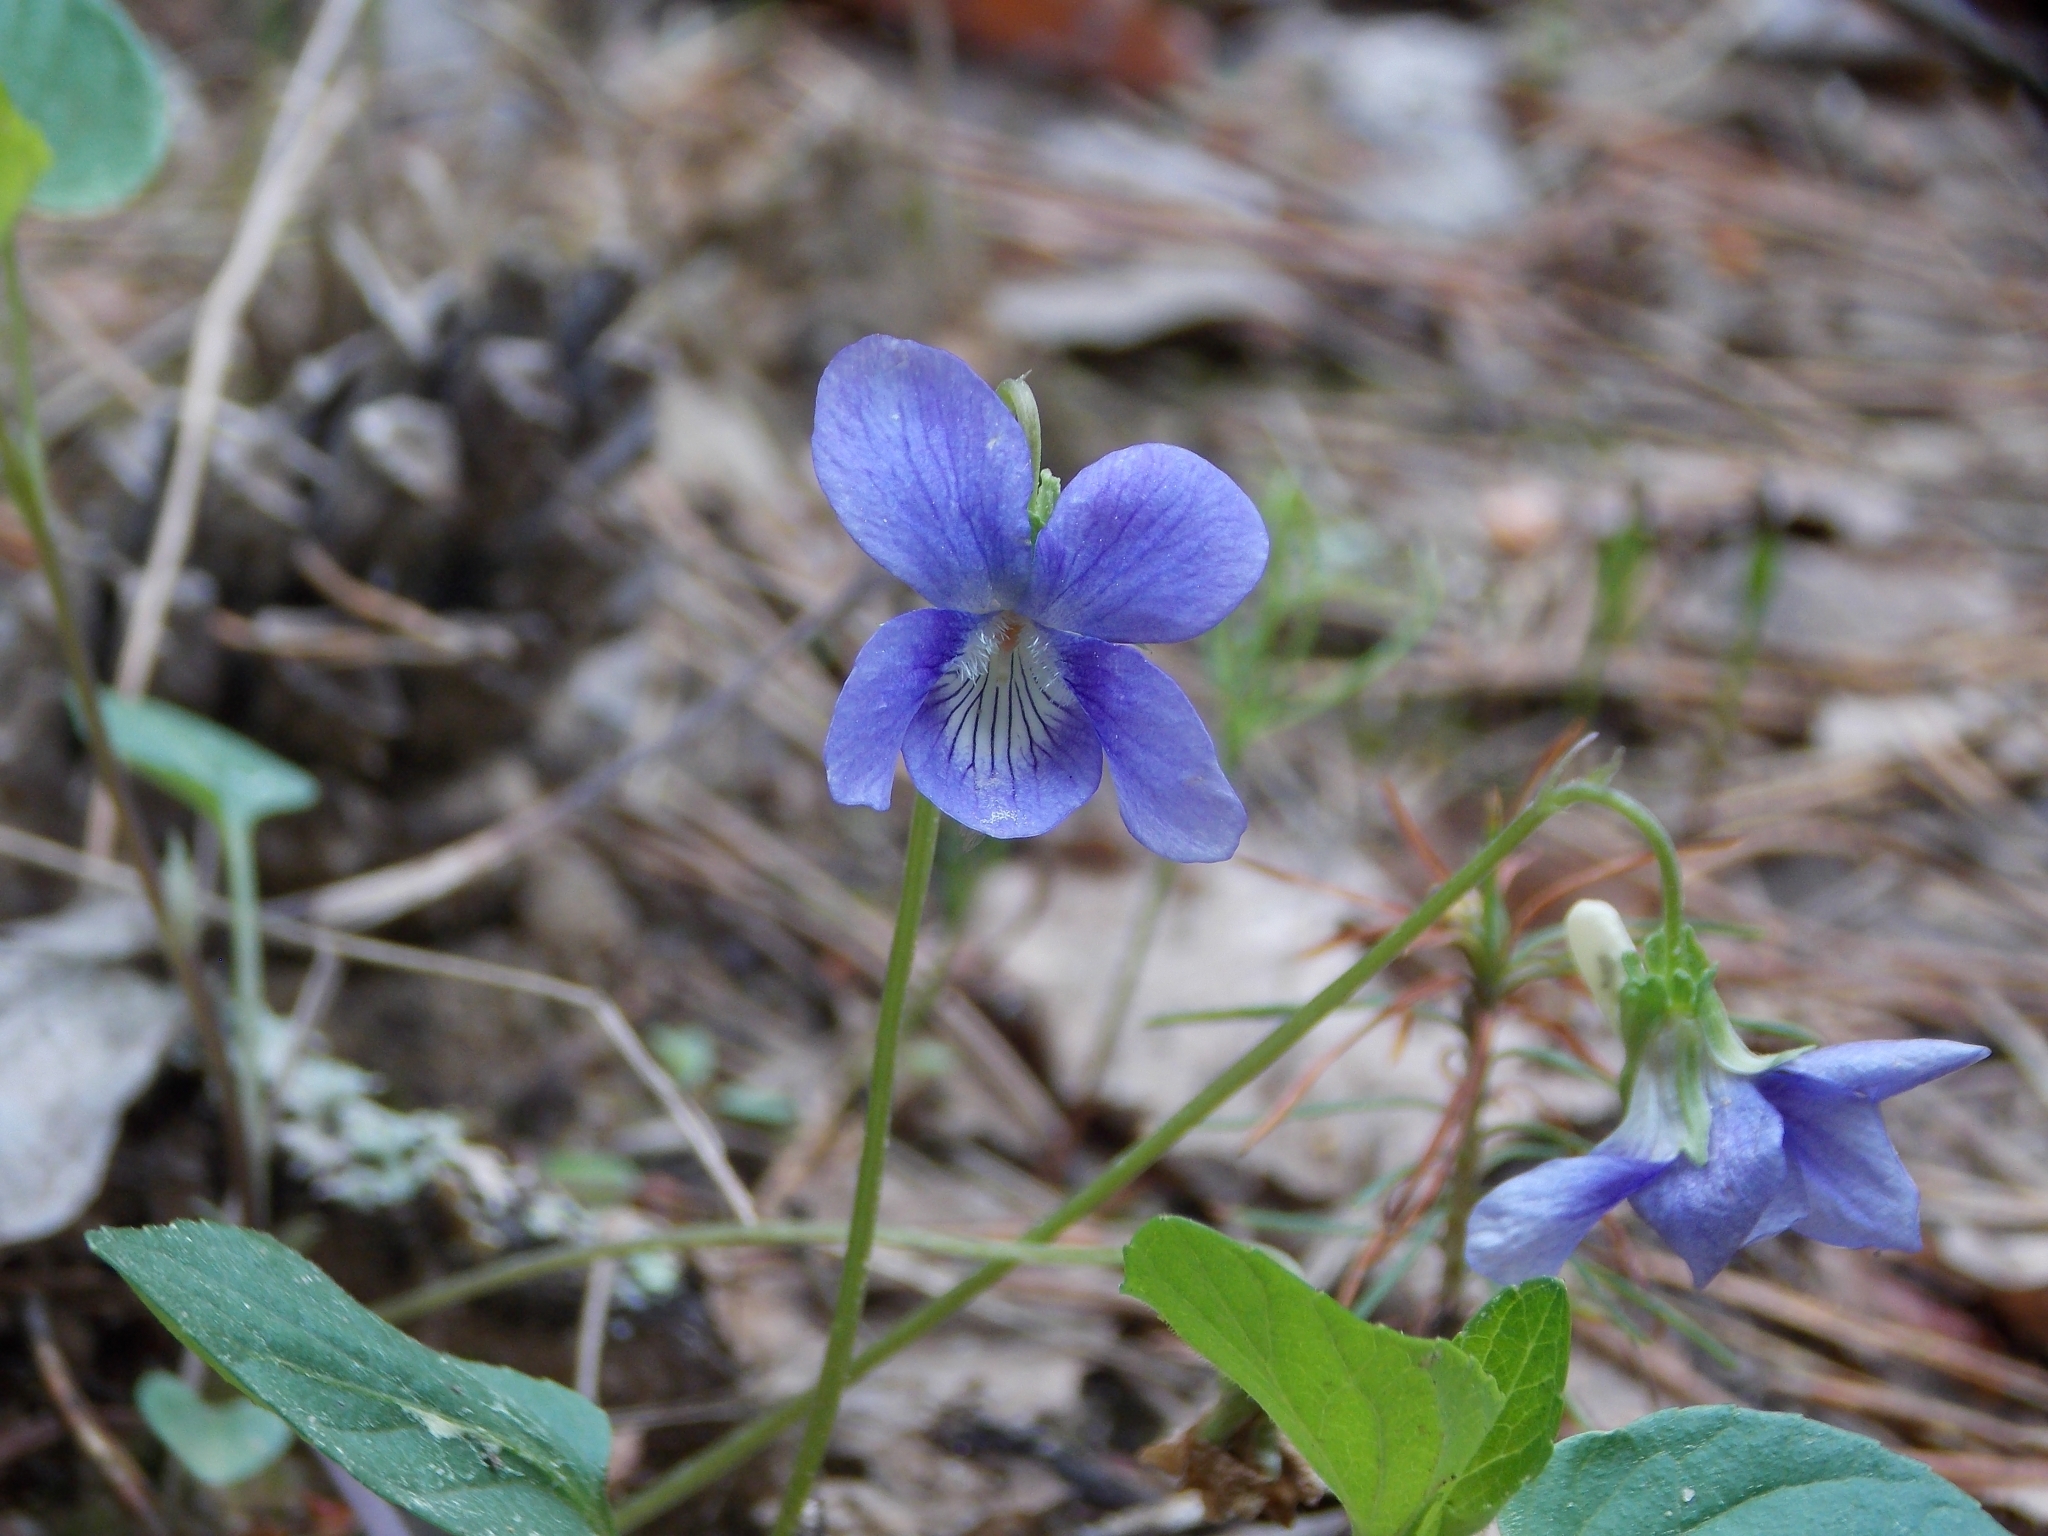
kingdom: Plantae
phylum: Tracheophyta
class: Magnoliopsida
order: Malpighiales
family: Violaceae
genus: Viola
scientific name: Viola riviniana
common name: Common dog-violet
